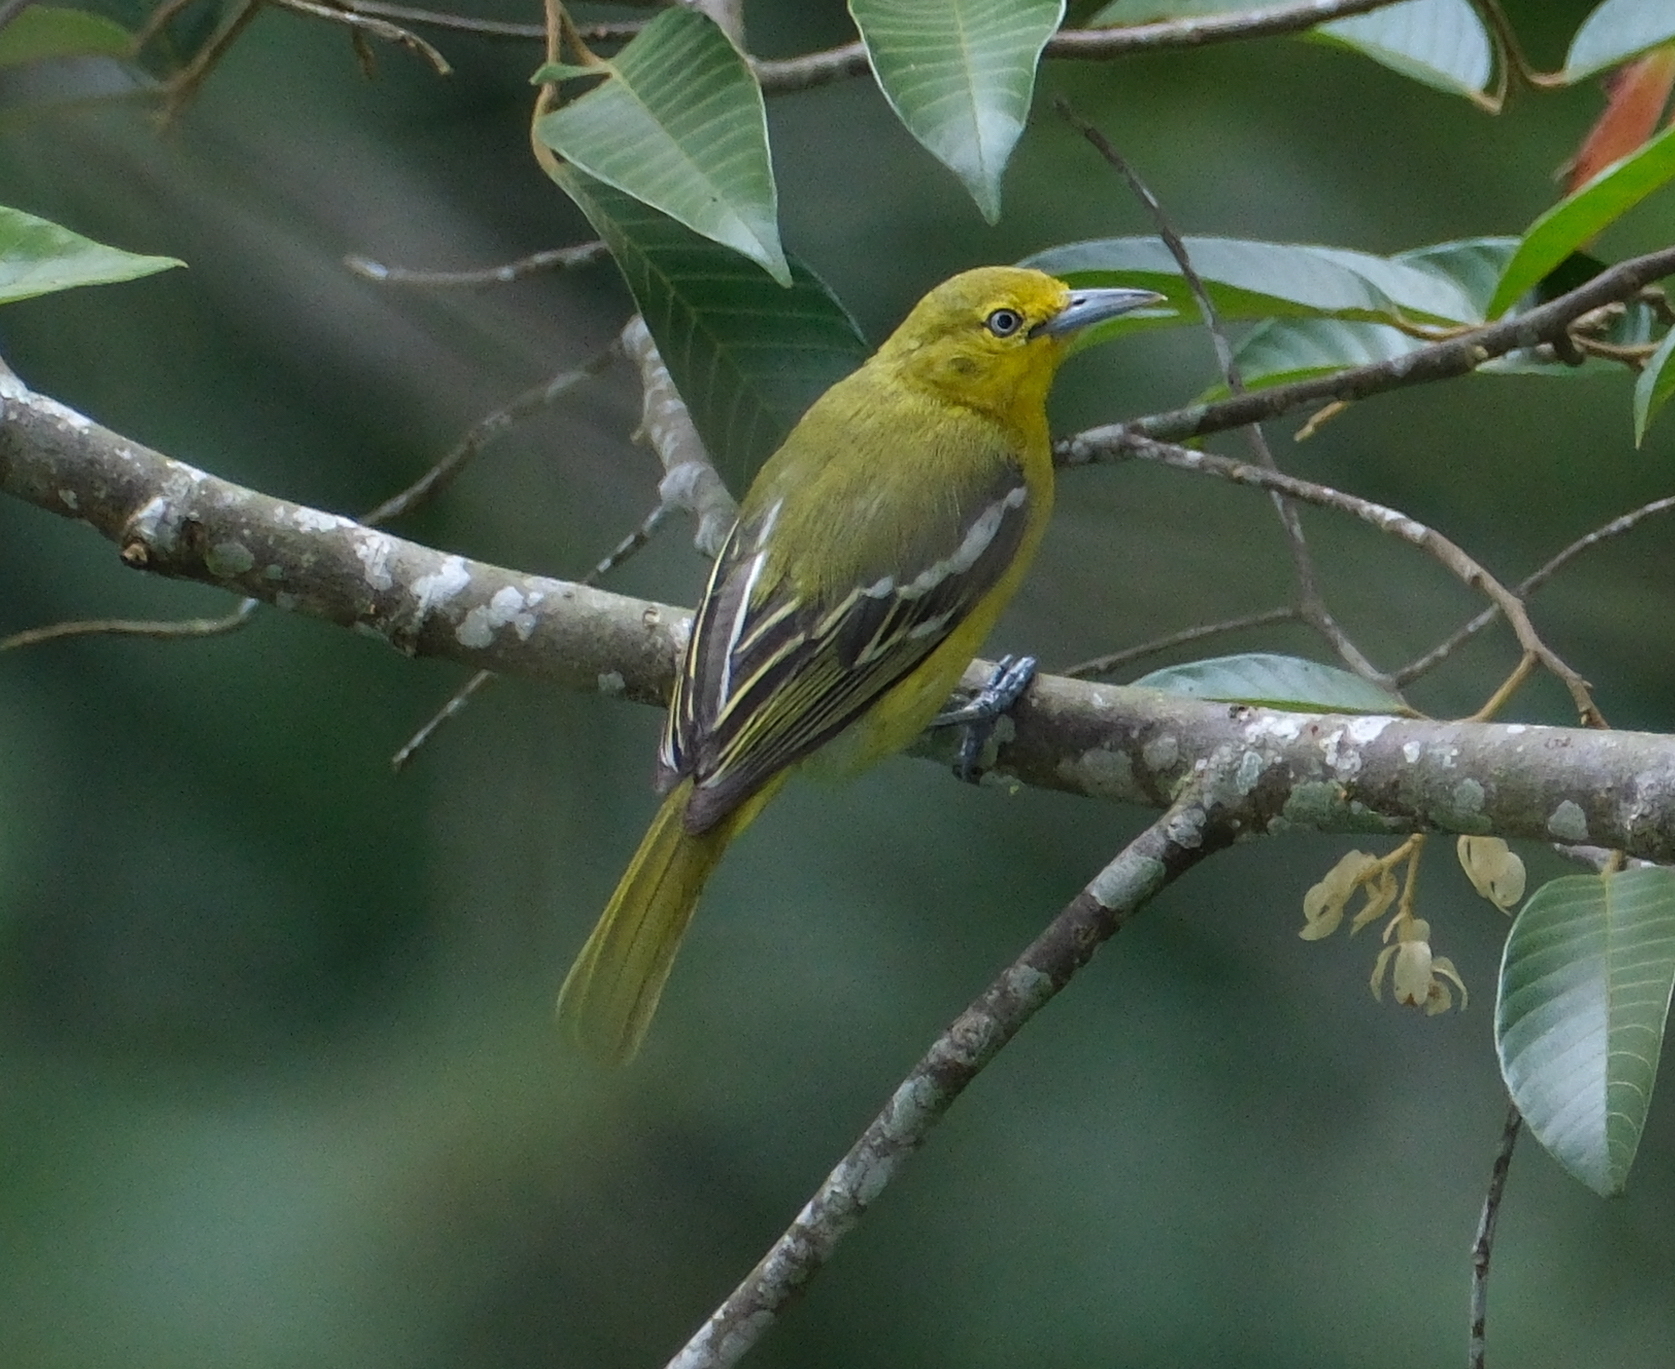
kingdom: Animalia
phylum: Chordata
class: Aves
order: Passeriformes
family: Aegithinidae
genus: Aegithina
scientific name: Aegithina tiphia
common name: Common iora
